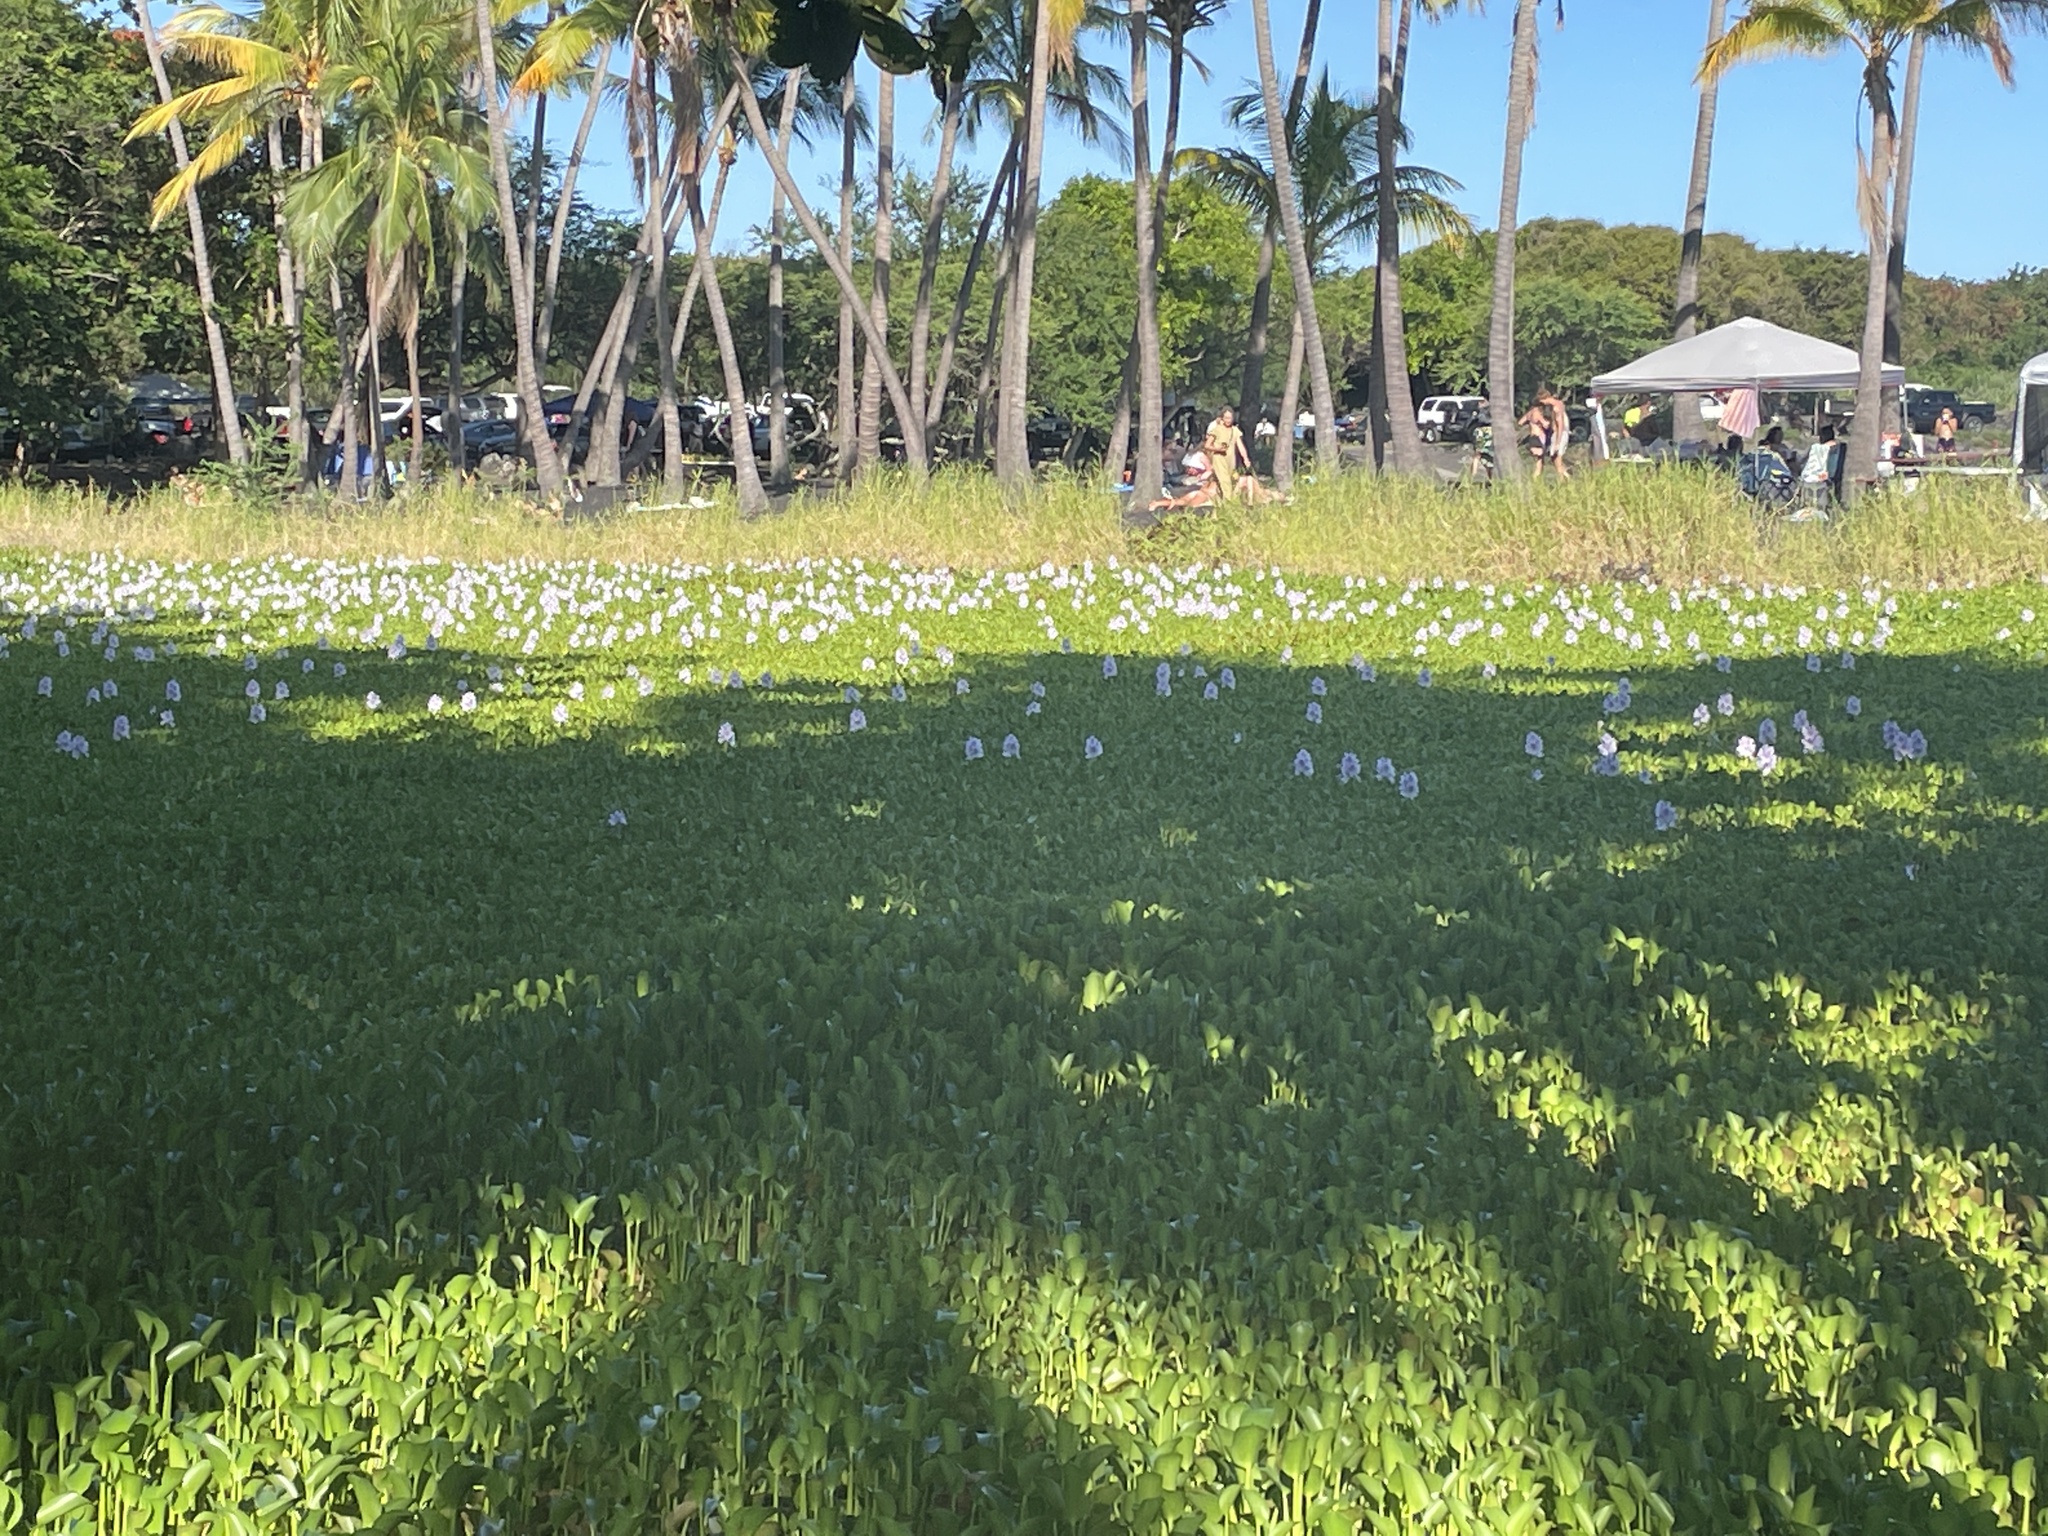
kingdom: Plantae
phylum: Tracheophyta
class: Liliopsida
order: Commelinales
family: Pontederiaceae
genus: Pontederia
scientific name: Pontederia crassipes
